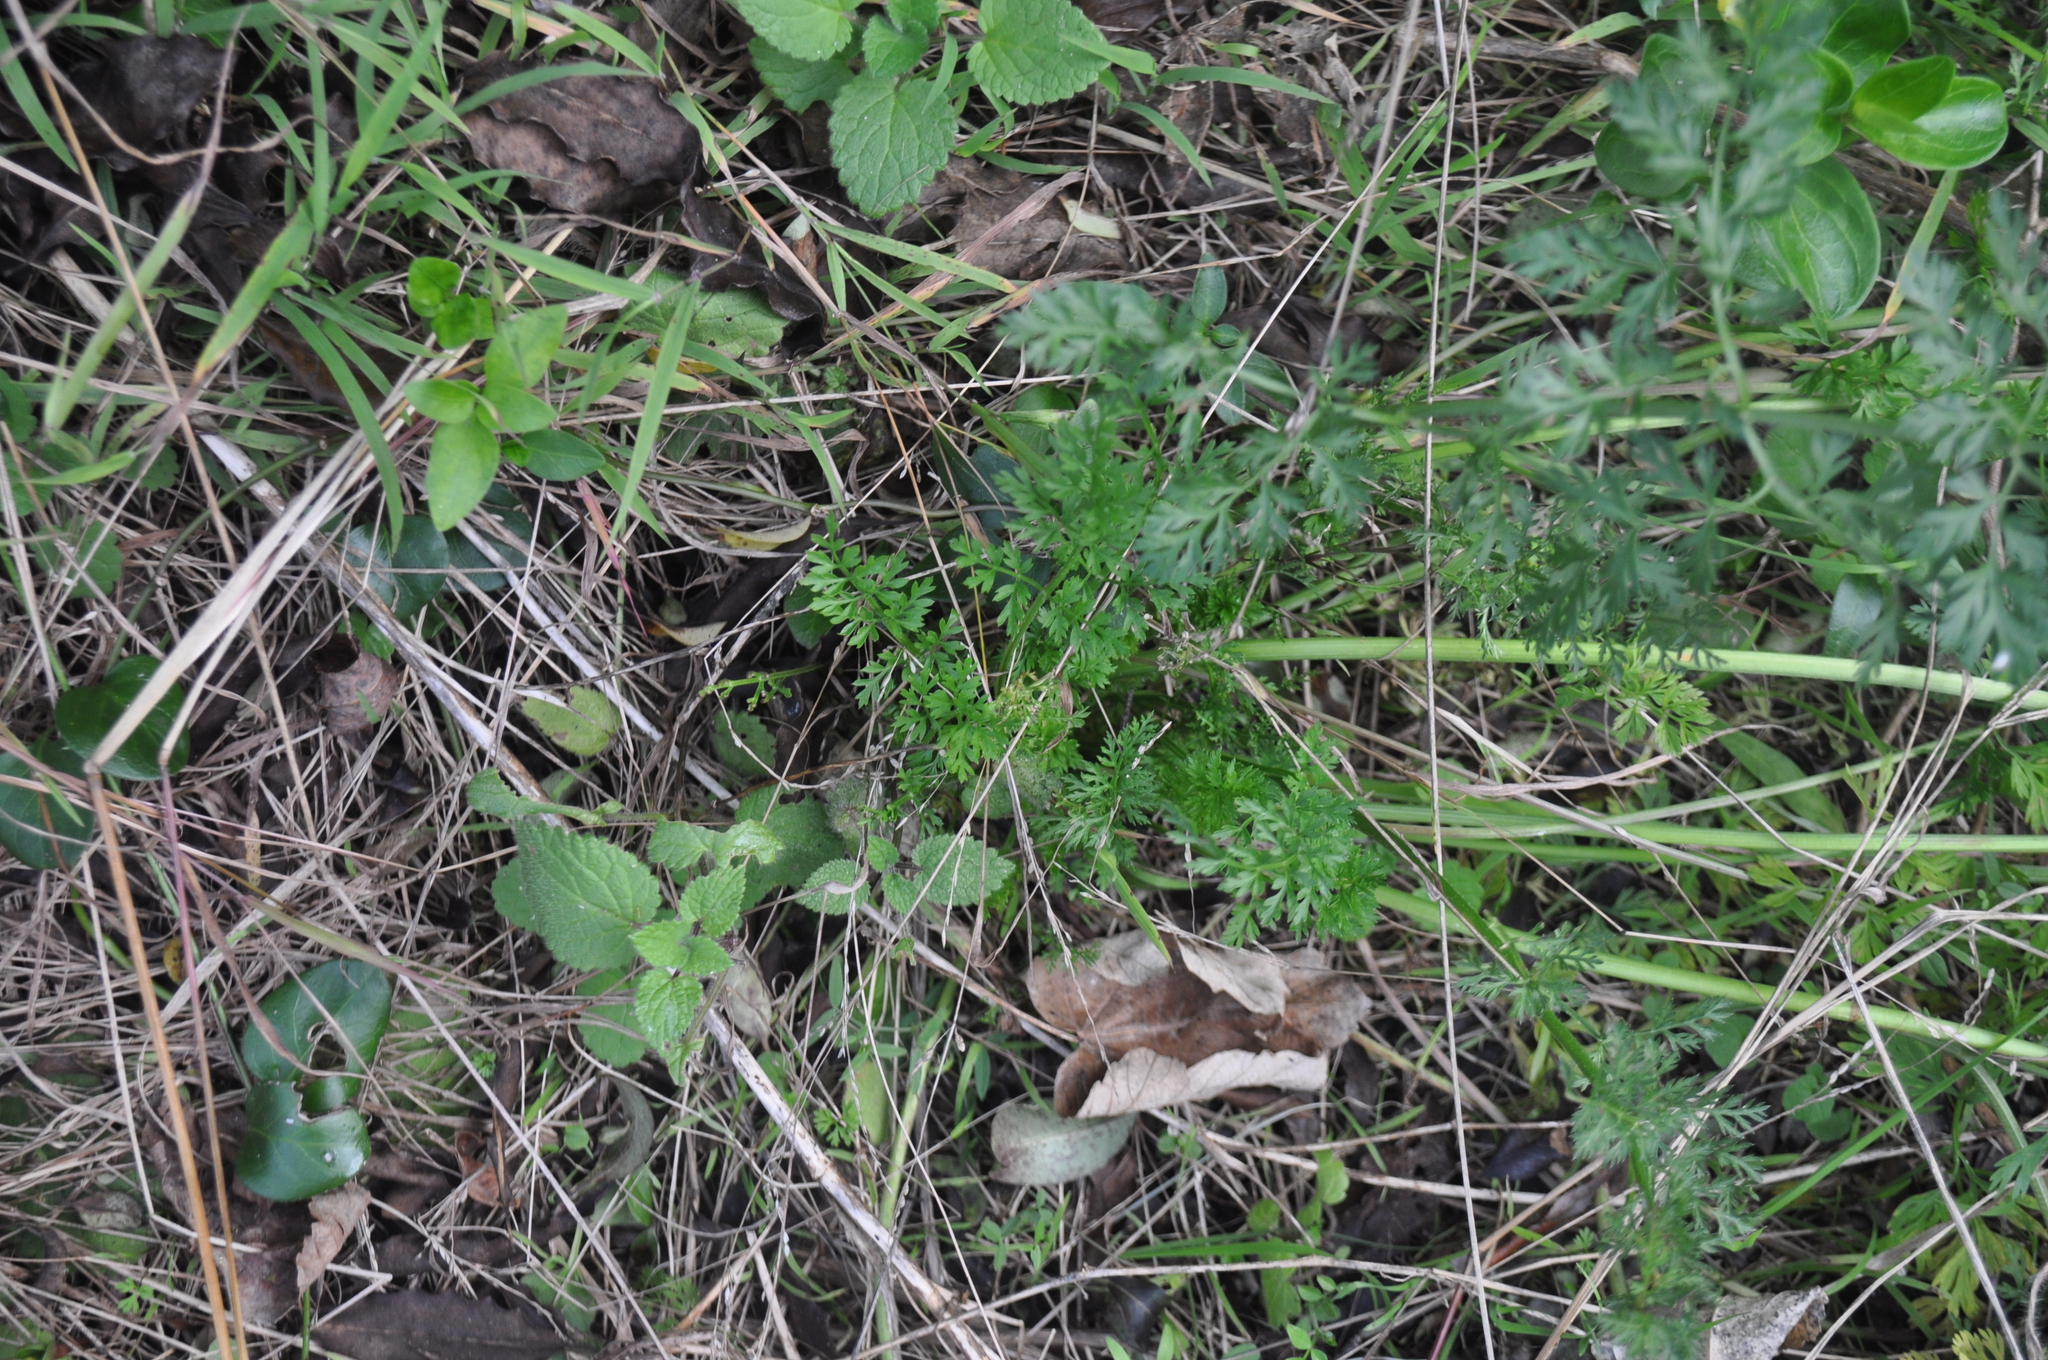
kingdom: Plantae
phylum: Tracheophyta
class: Magnoliopsida
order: Asterales
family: Asteraceae
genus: Jacobaea
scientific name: Jacobaea vulgaris
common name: Stinking willie
